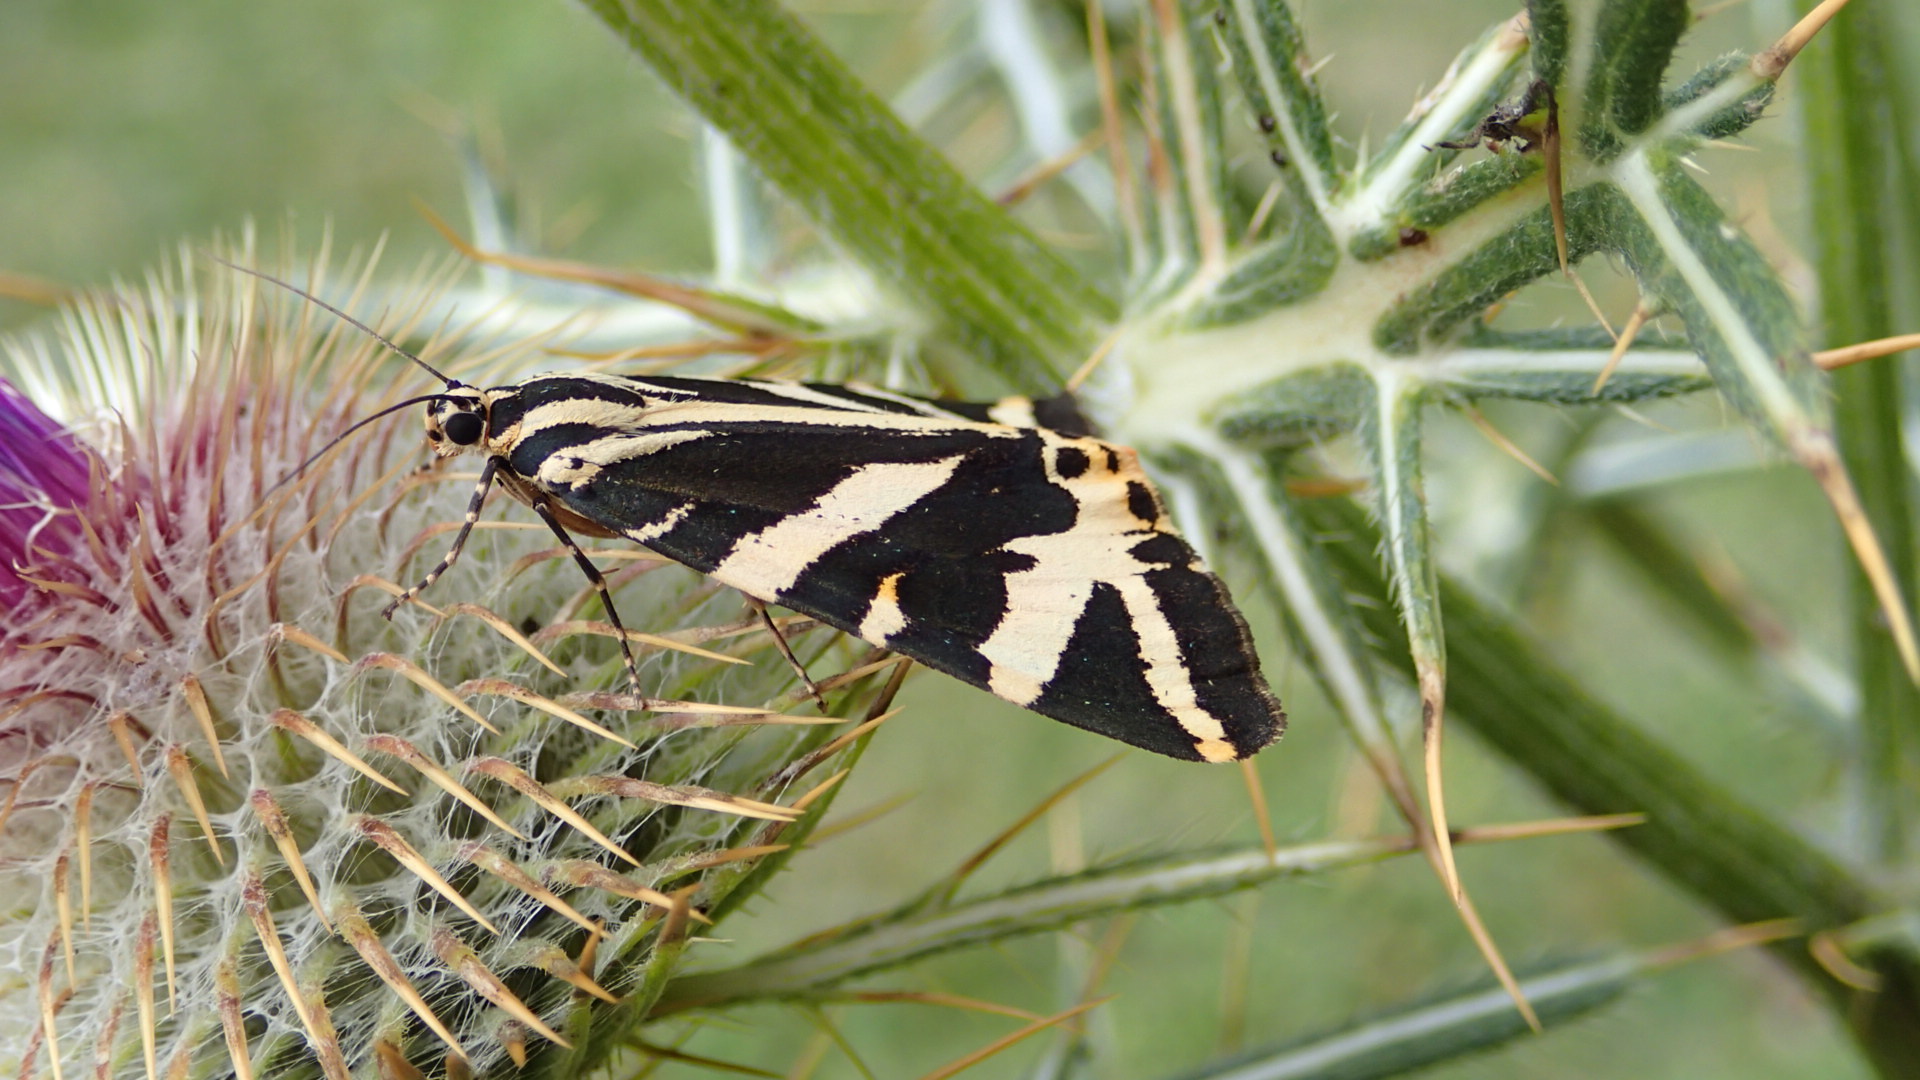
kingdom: Animalia
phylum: Arthropoda
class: Insecta
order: Lepidoptera
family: Erebidae
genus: Euplagia
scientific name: Euplagia quadripunctaria
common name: Jersey tiger
